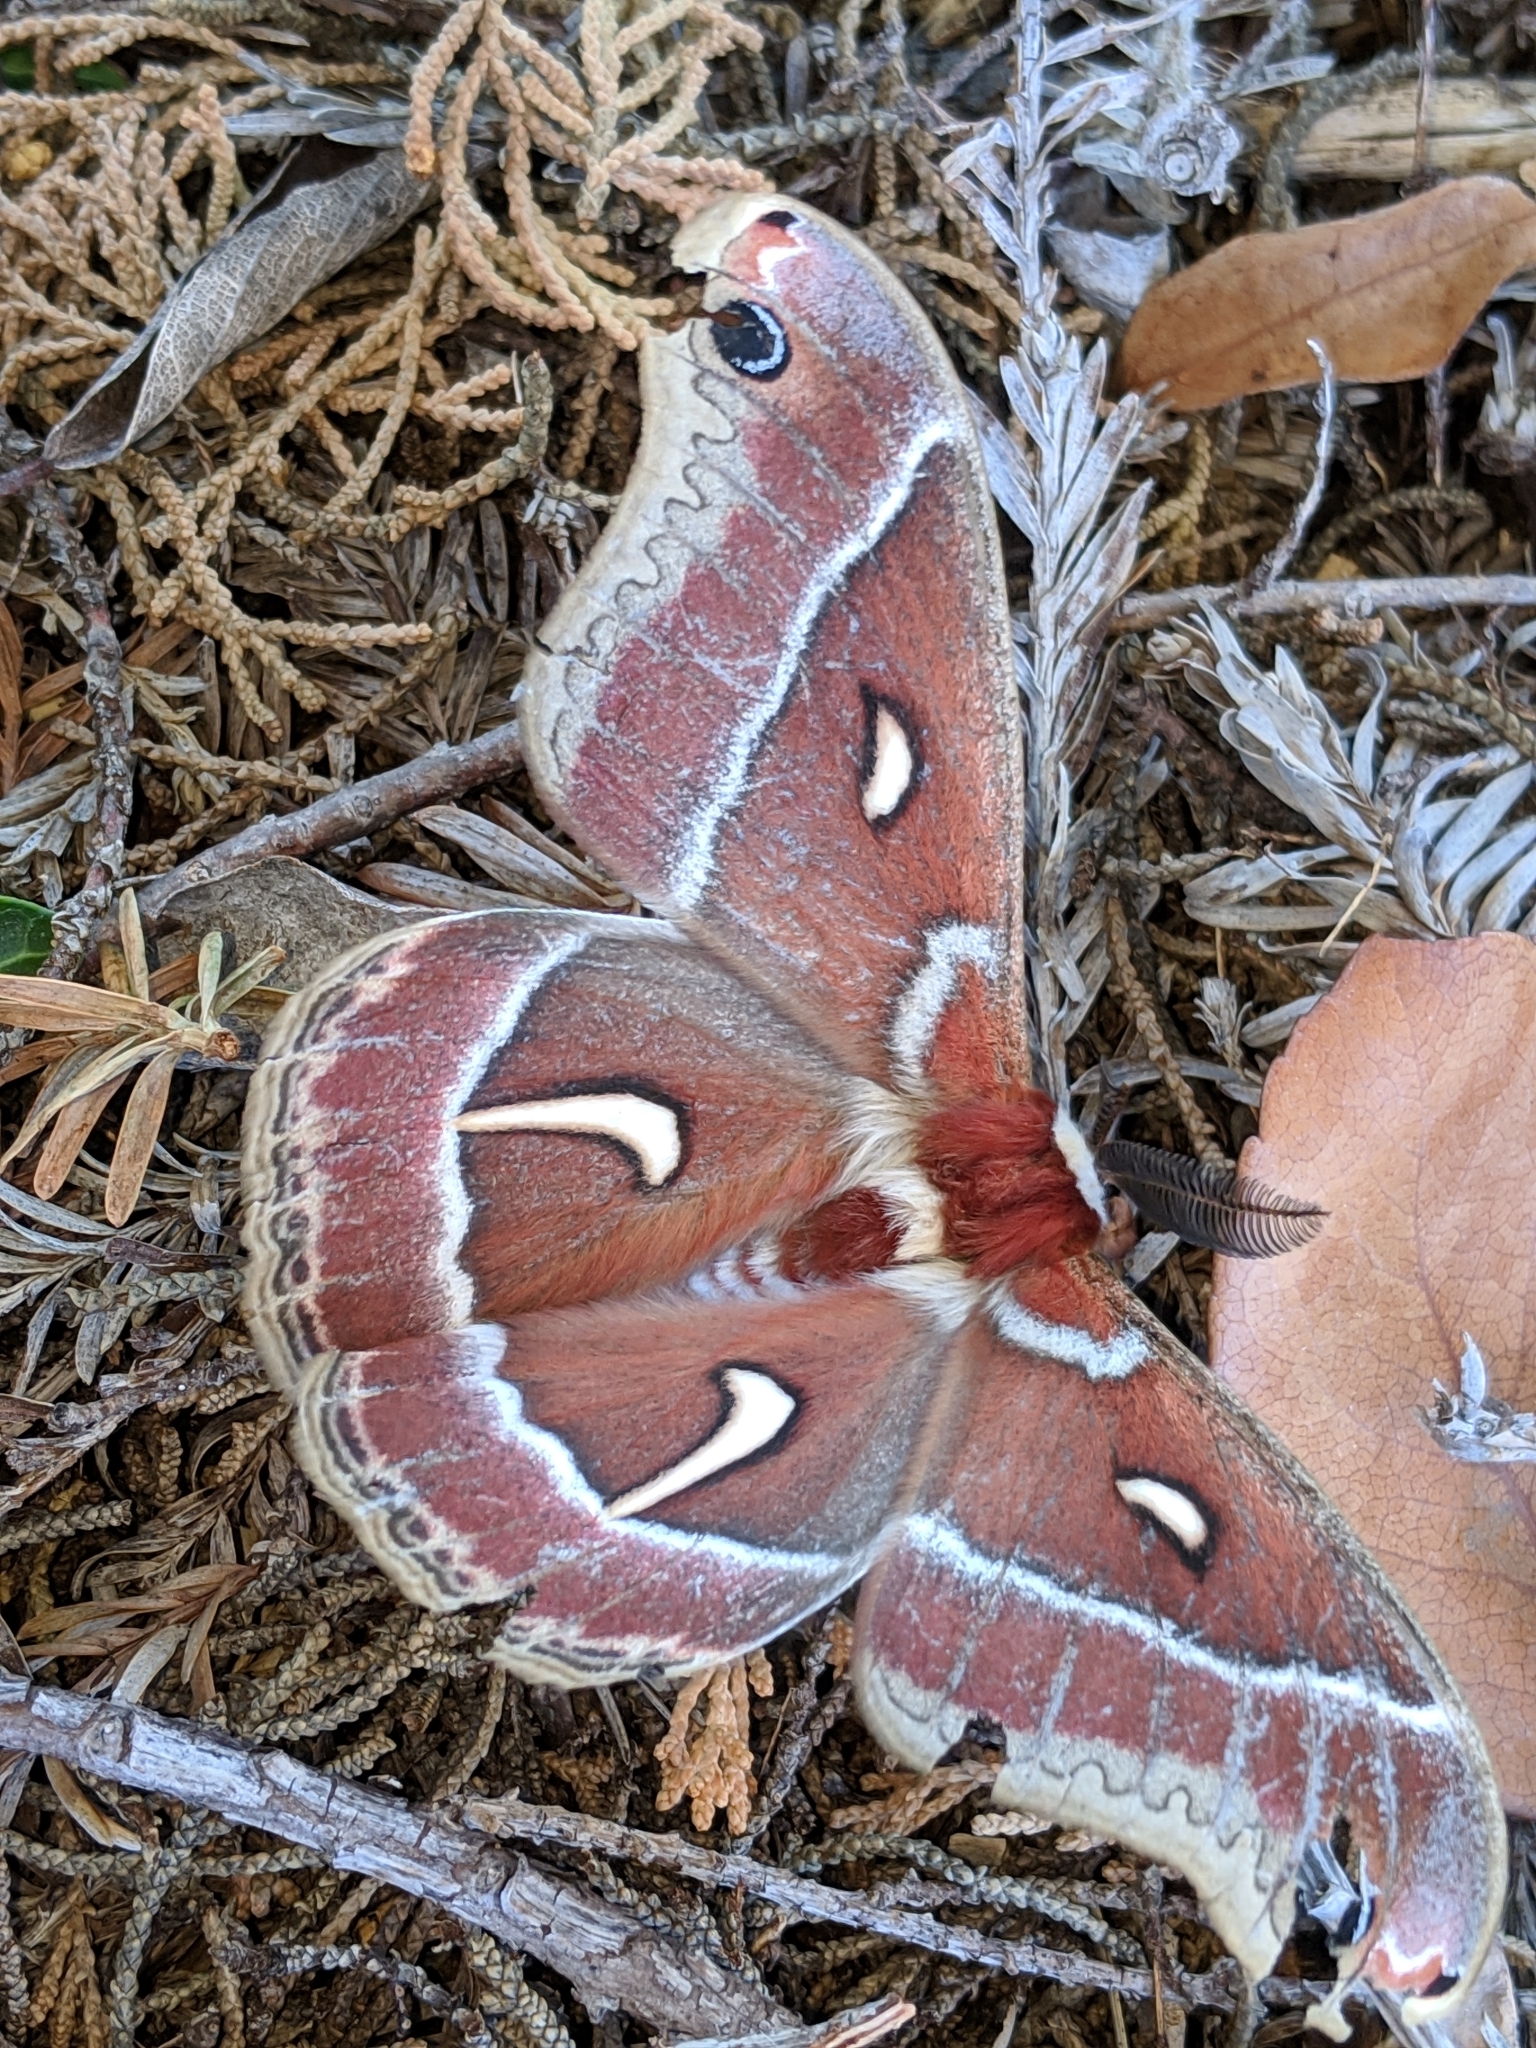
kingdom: Animalia
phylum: Arthropoda
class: Insecta
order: Lepidoptera
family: Saturniidae
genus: Hyalophora
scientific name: Hyalophora euryalus
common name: Ceanothus silkmoth
